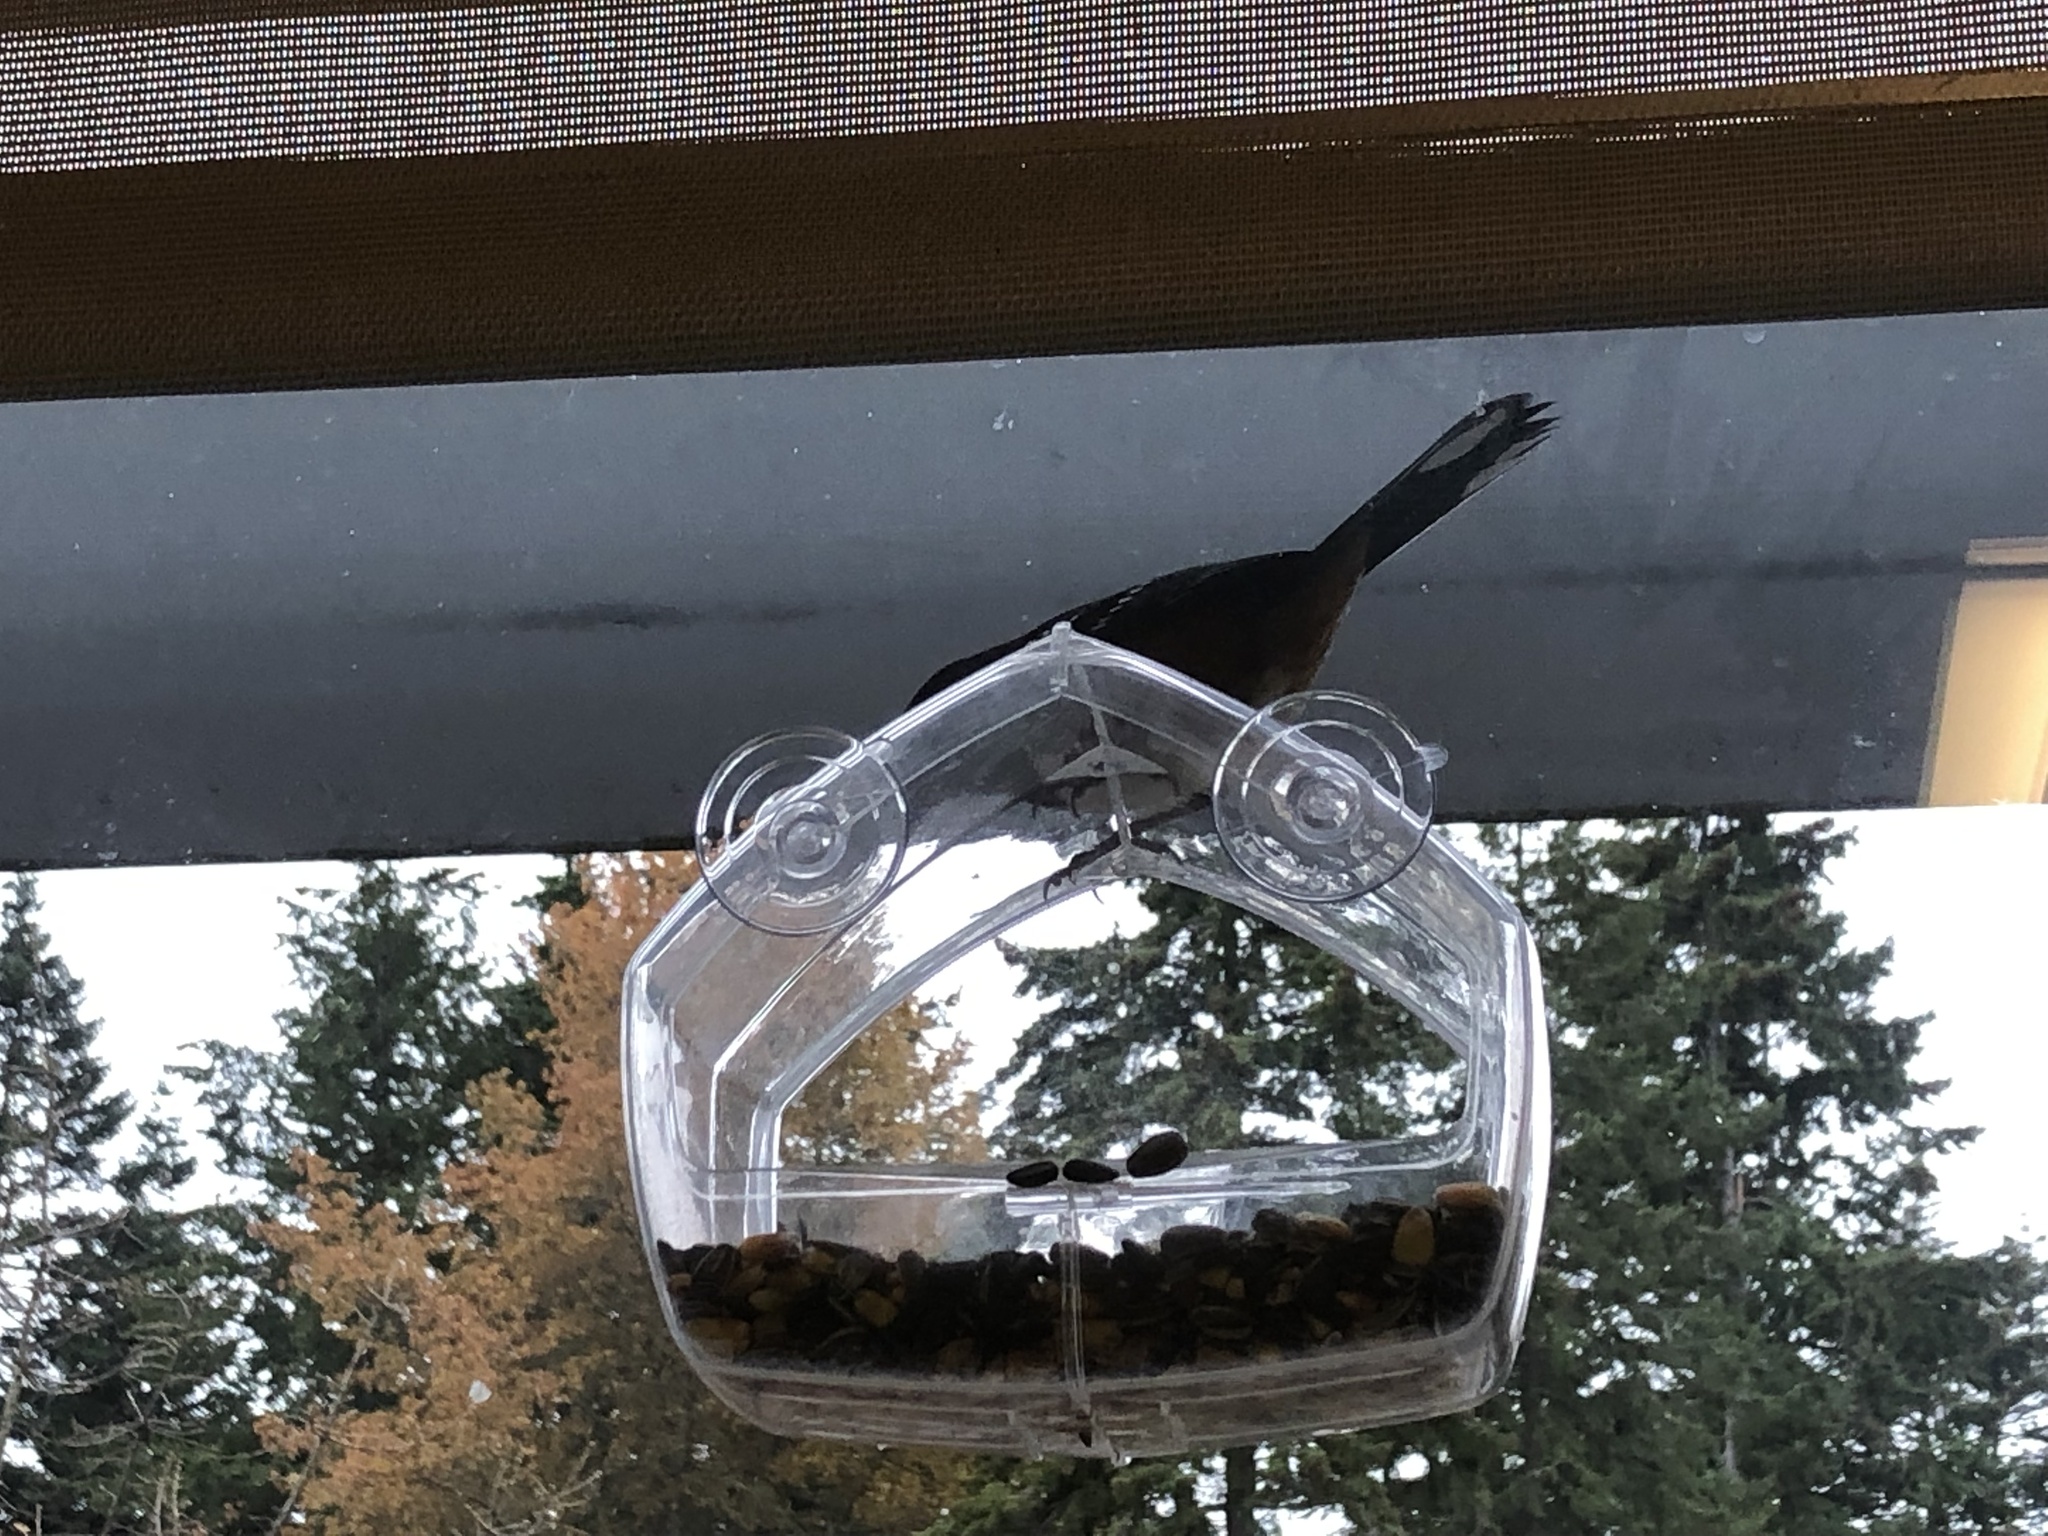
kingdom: Animalia
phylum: Chordata
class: Aves
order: Passeriformes
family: Passerellidae
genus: Pipilo
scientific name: Pipilo maculatus
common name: Spotted towhee
